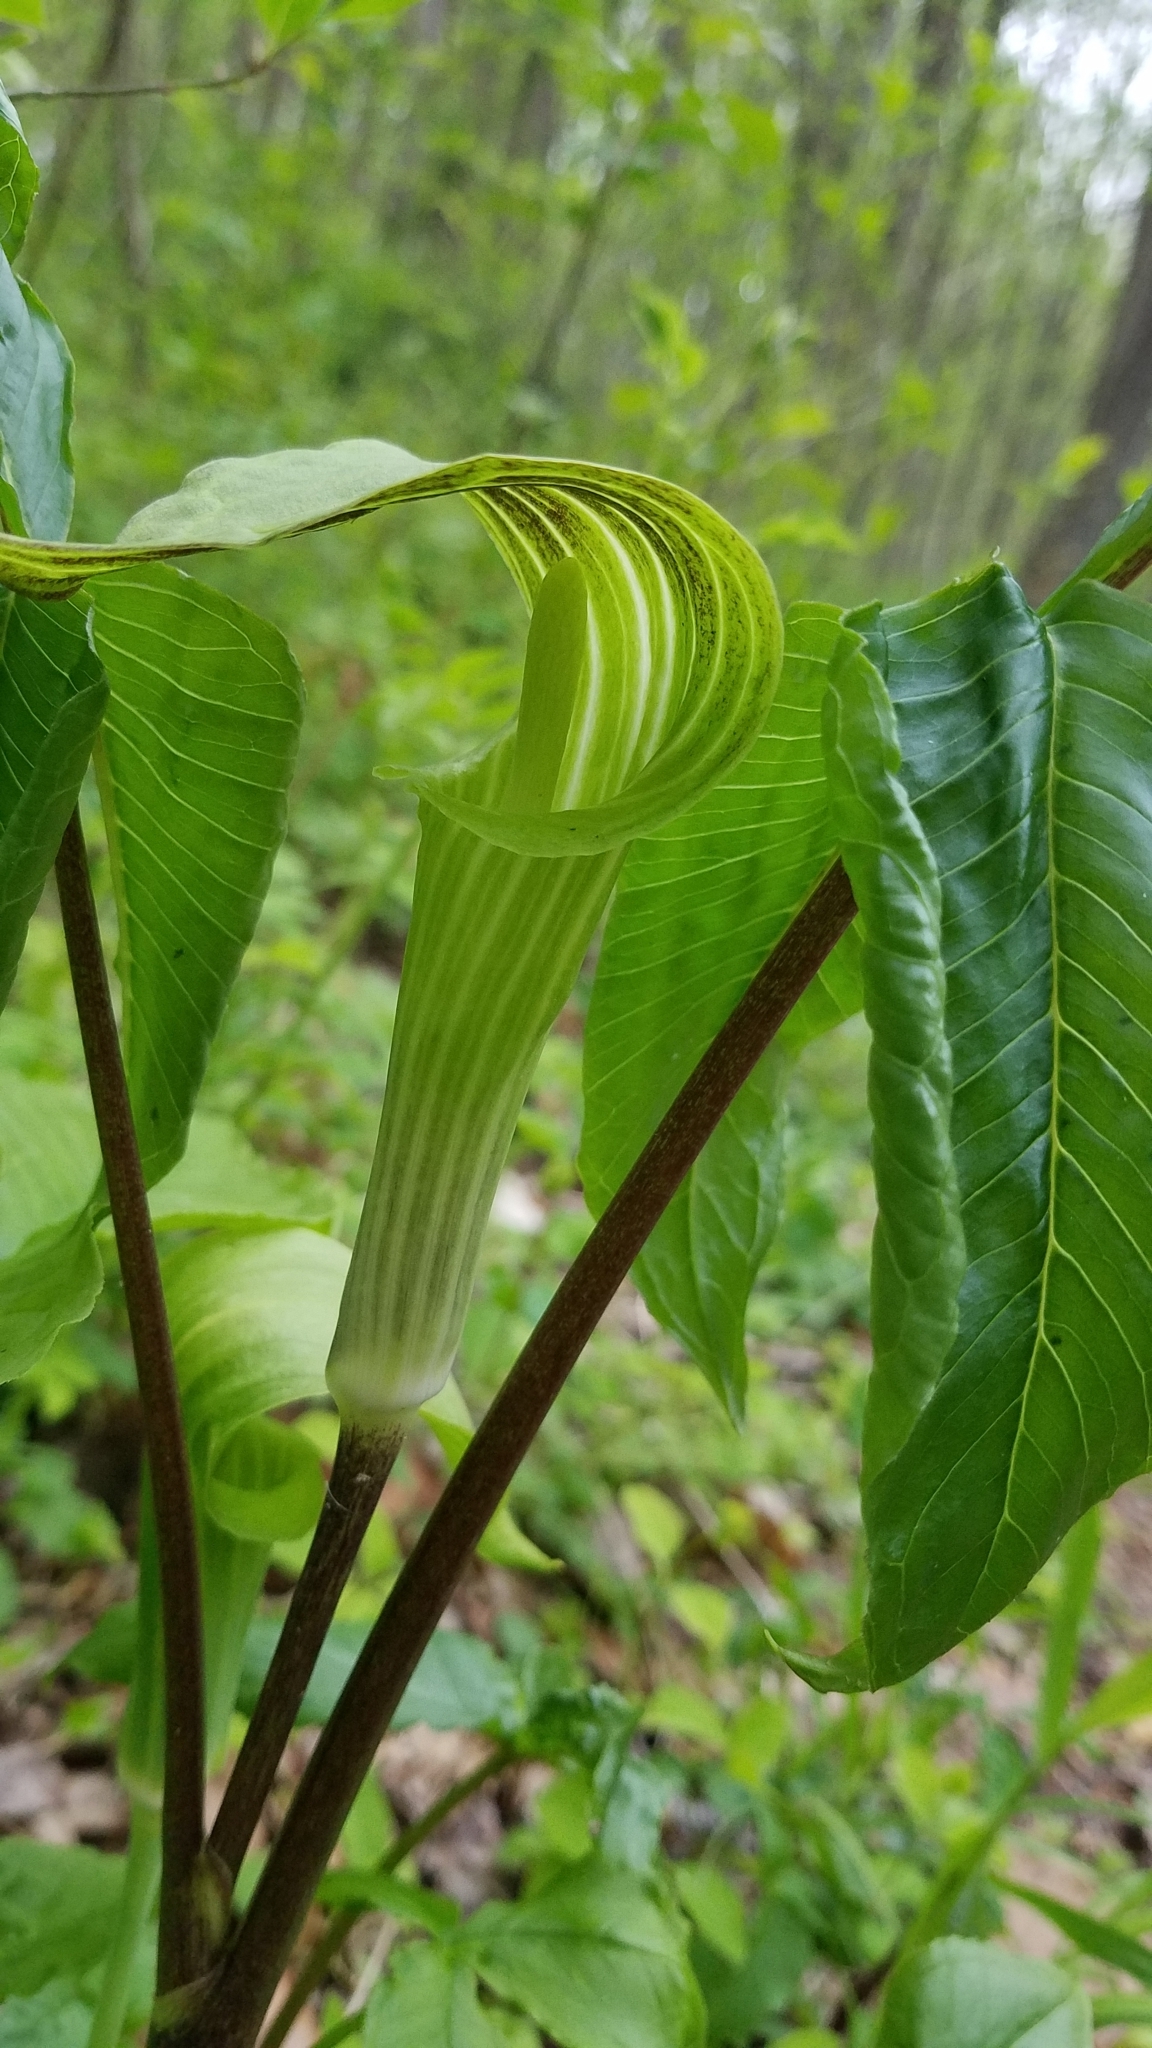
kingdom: Plantae
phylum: Tracheophyta
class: Liliopsida
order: Alismatales
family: Araceae
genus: Arisaema
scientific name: Arisaema triphyllum
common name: Jack-in-the-pulpit
